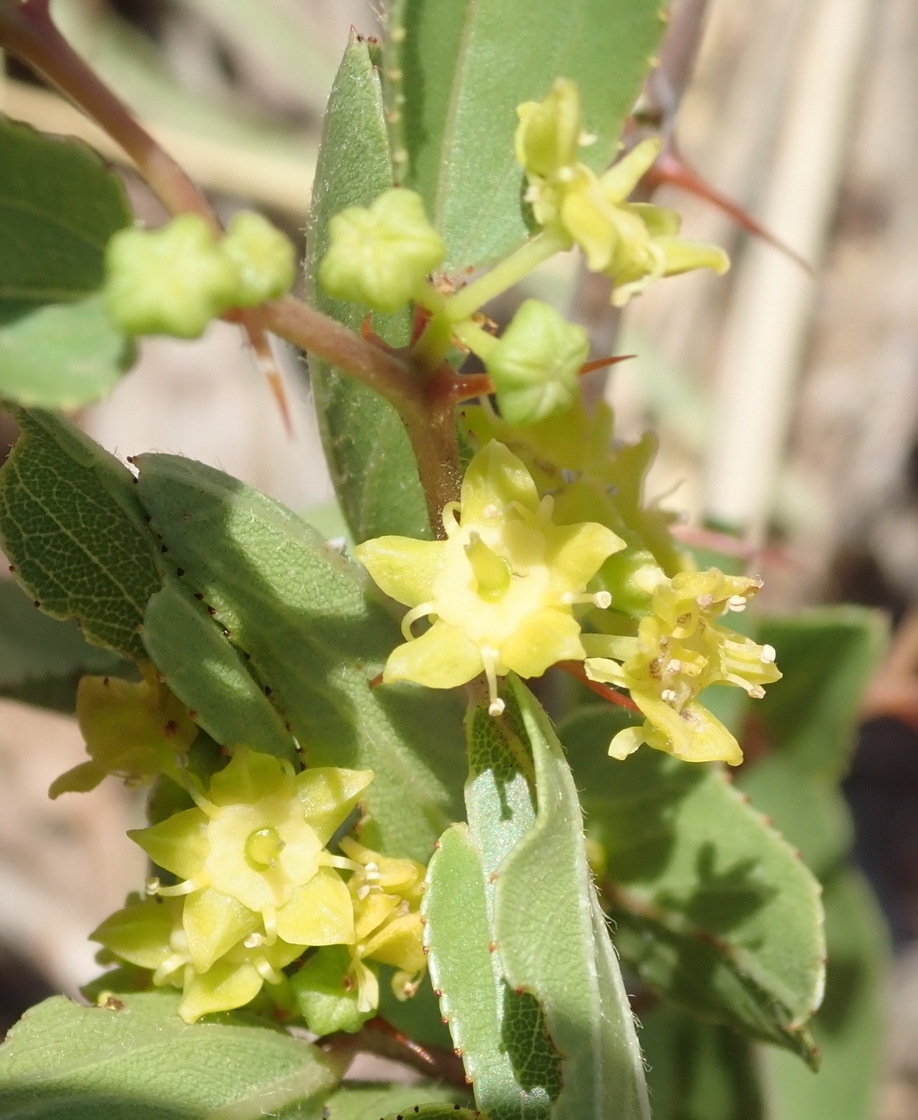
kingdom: Plantae
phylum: Tracheophyta
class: Magnoliopsida
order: Rosales
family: Rhamnaceae
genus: Ziziphus
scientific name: Ziziphus zeyheriana
